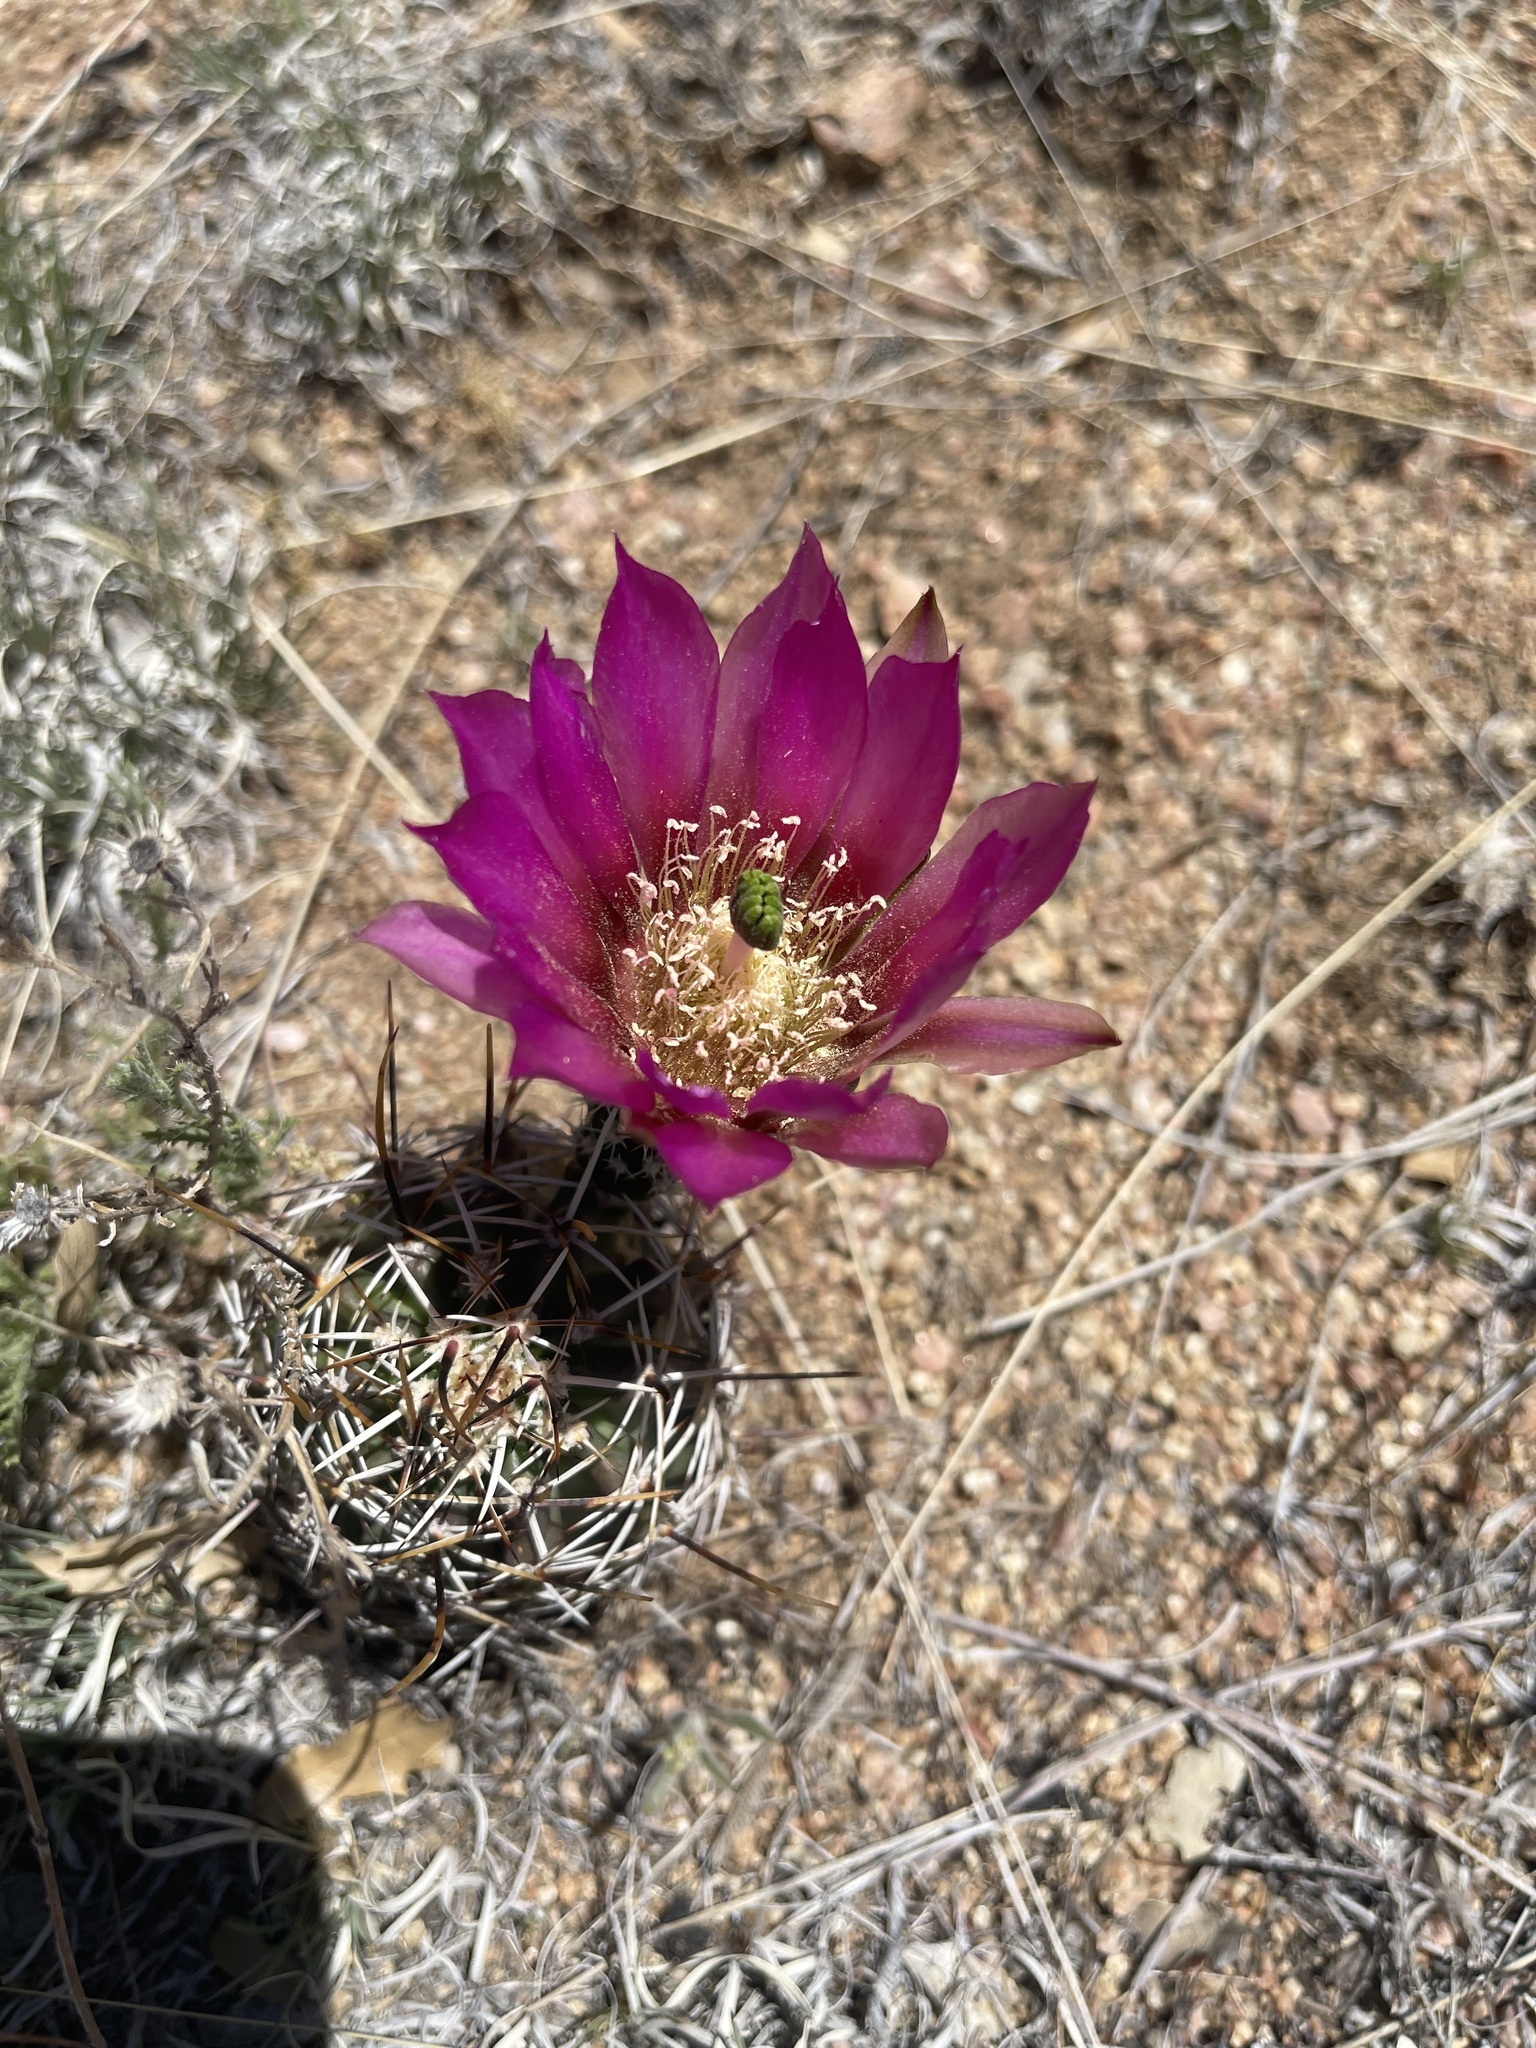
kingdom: Plantae
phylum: Tracheophyta
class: Magnoliopsida
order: Caryophyllales
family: Cactaceae
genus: Echinocereus
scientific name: Echinocereus fendleri
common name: Fendler's hedgehog cactus
